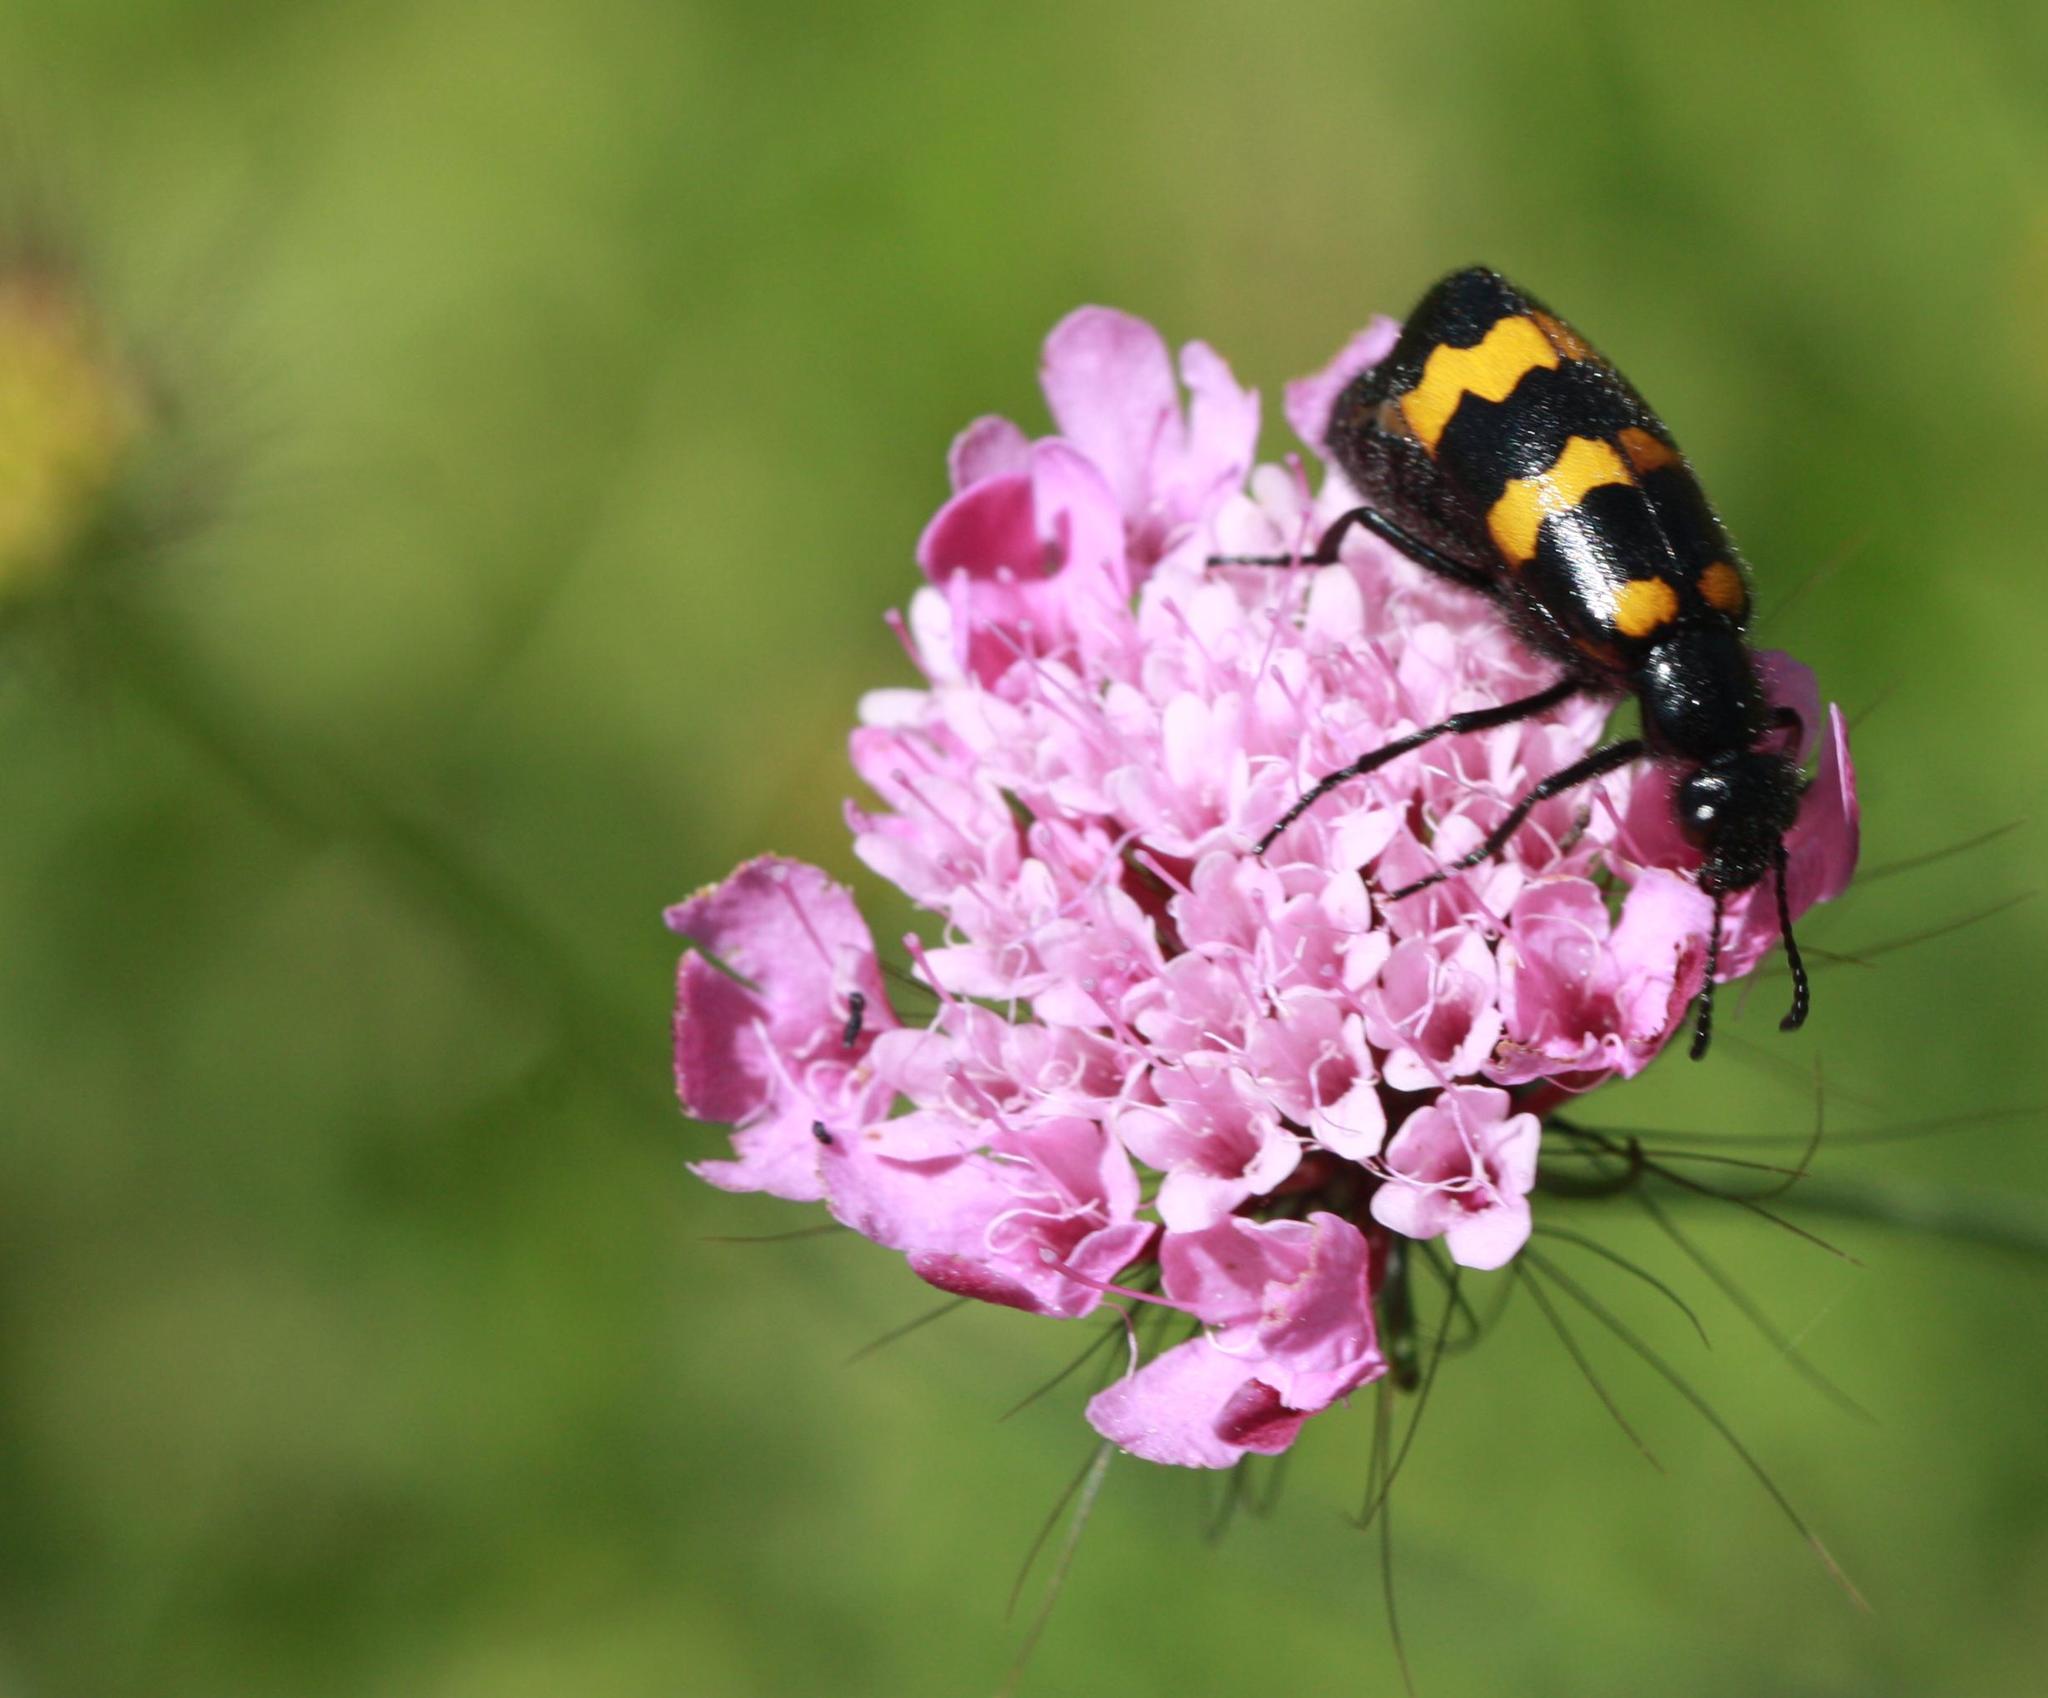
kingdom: Animalia
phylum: Arthropoda
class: Insecta
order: Coleoptera
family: Meloidae
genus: Mylabris
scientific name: Mylabris variabilis
